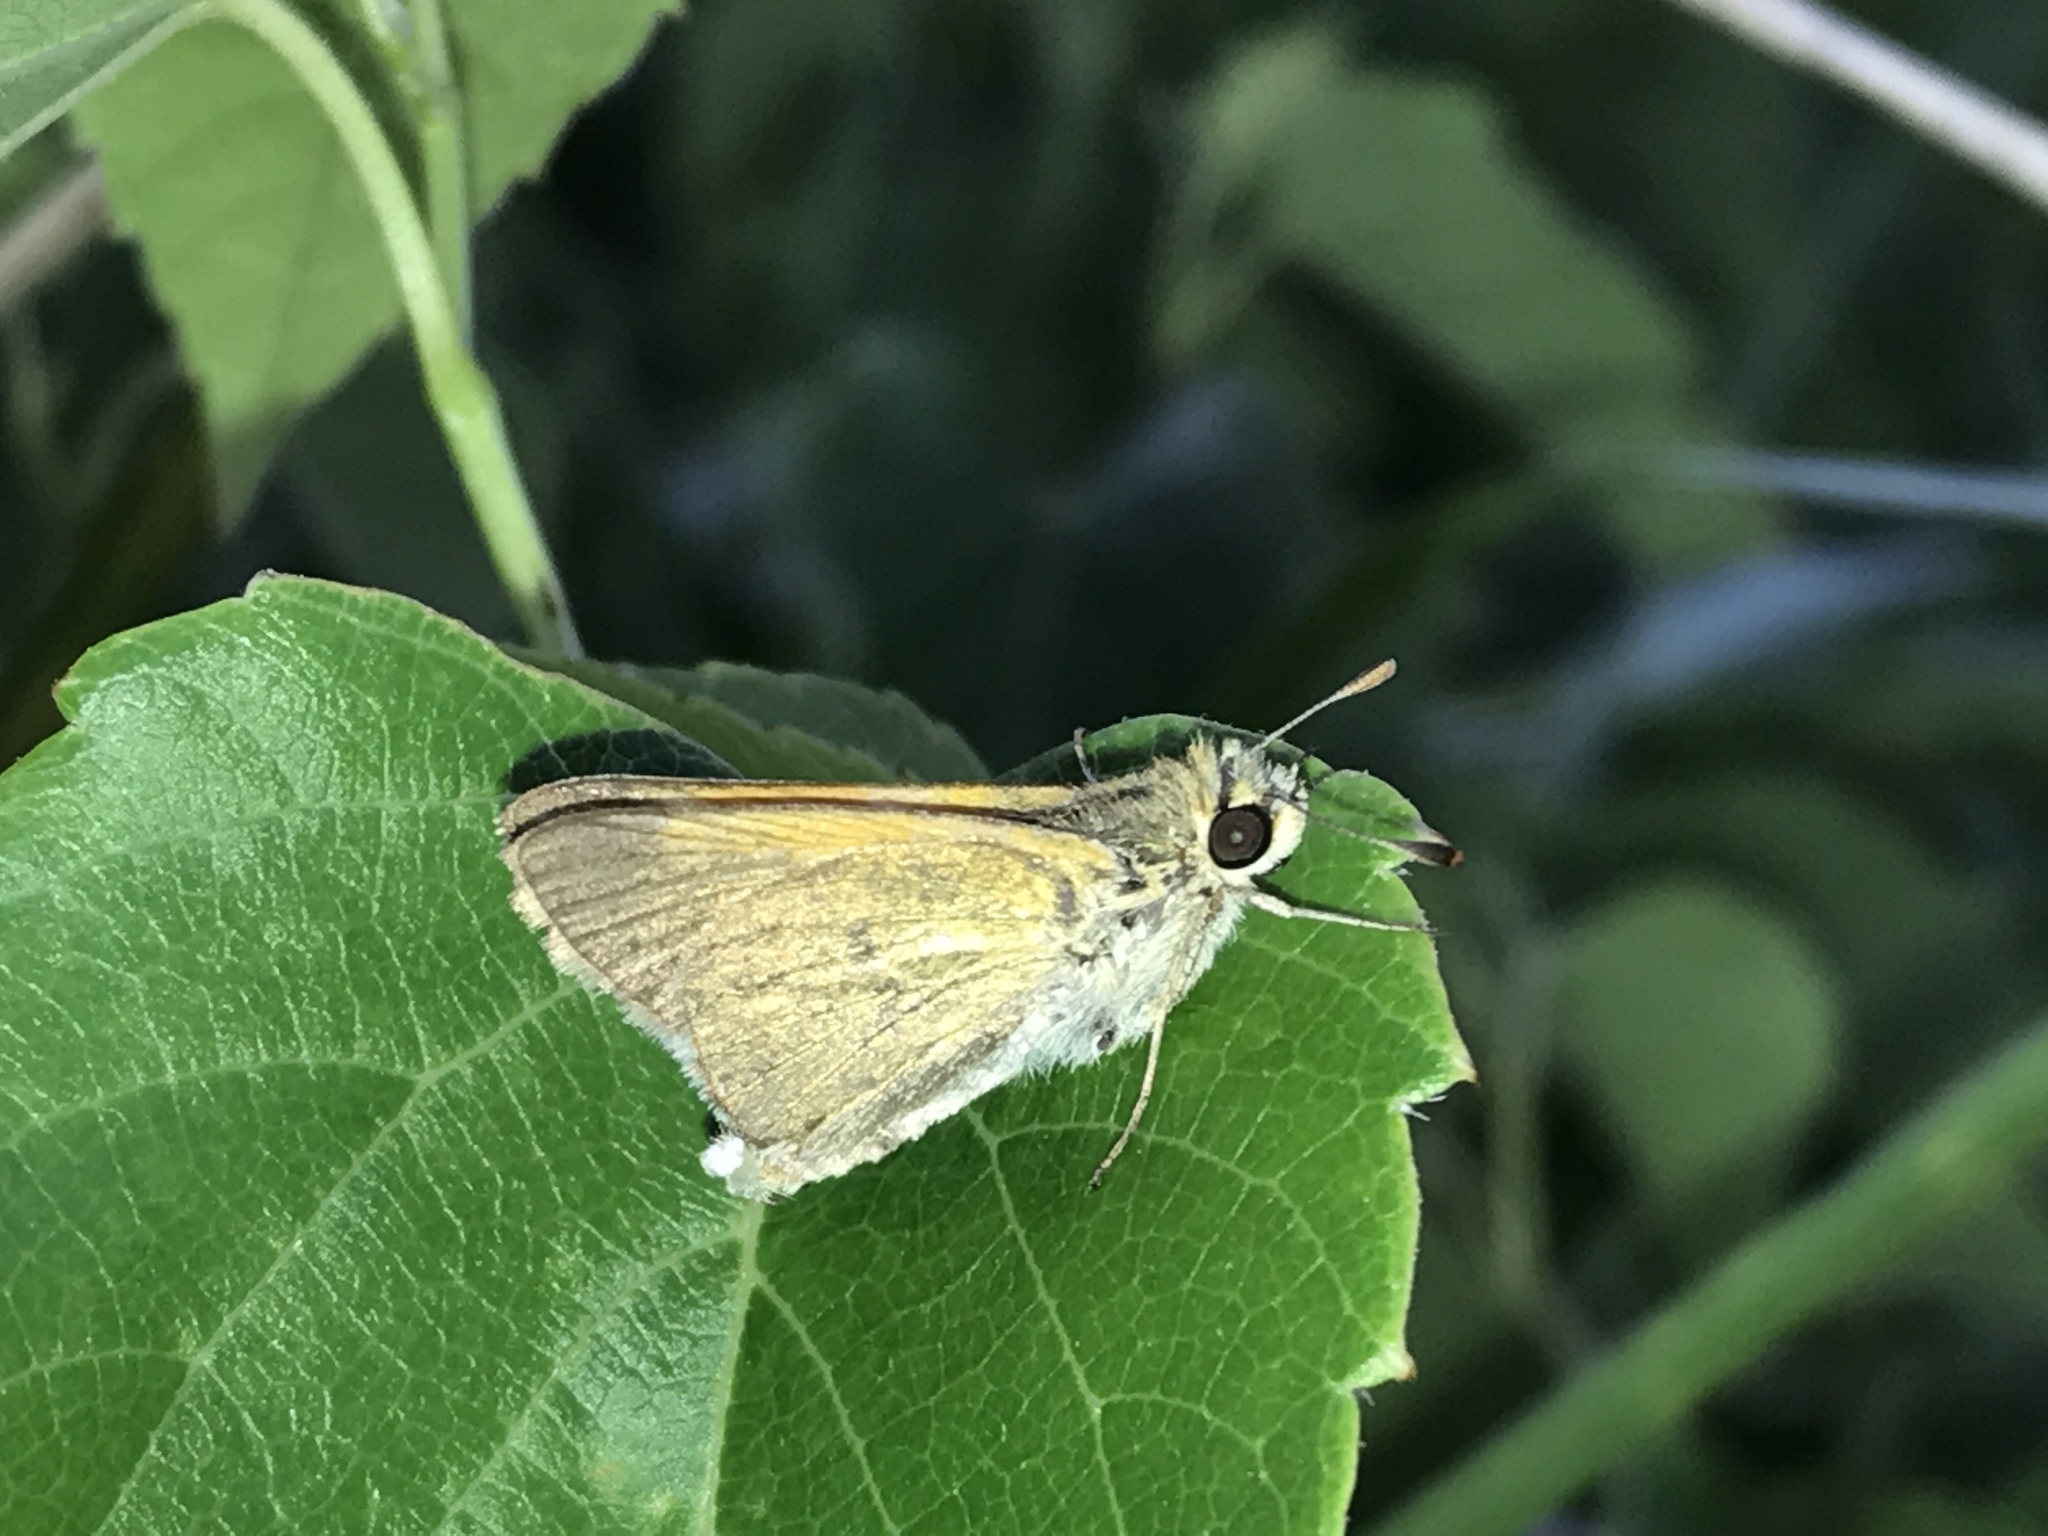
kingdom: Animalia
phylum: Arthropoda
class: Insecta
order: Lepidoptera
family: Hesperiidae
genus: Polites
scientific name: Polites themistocles
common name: Tawny-edged skipper
